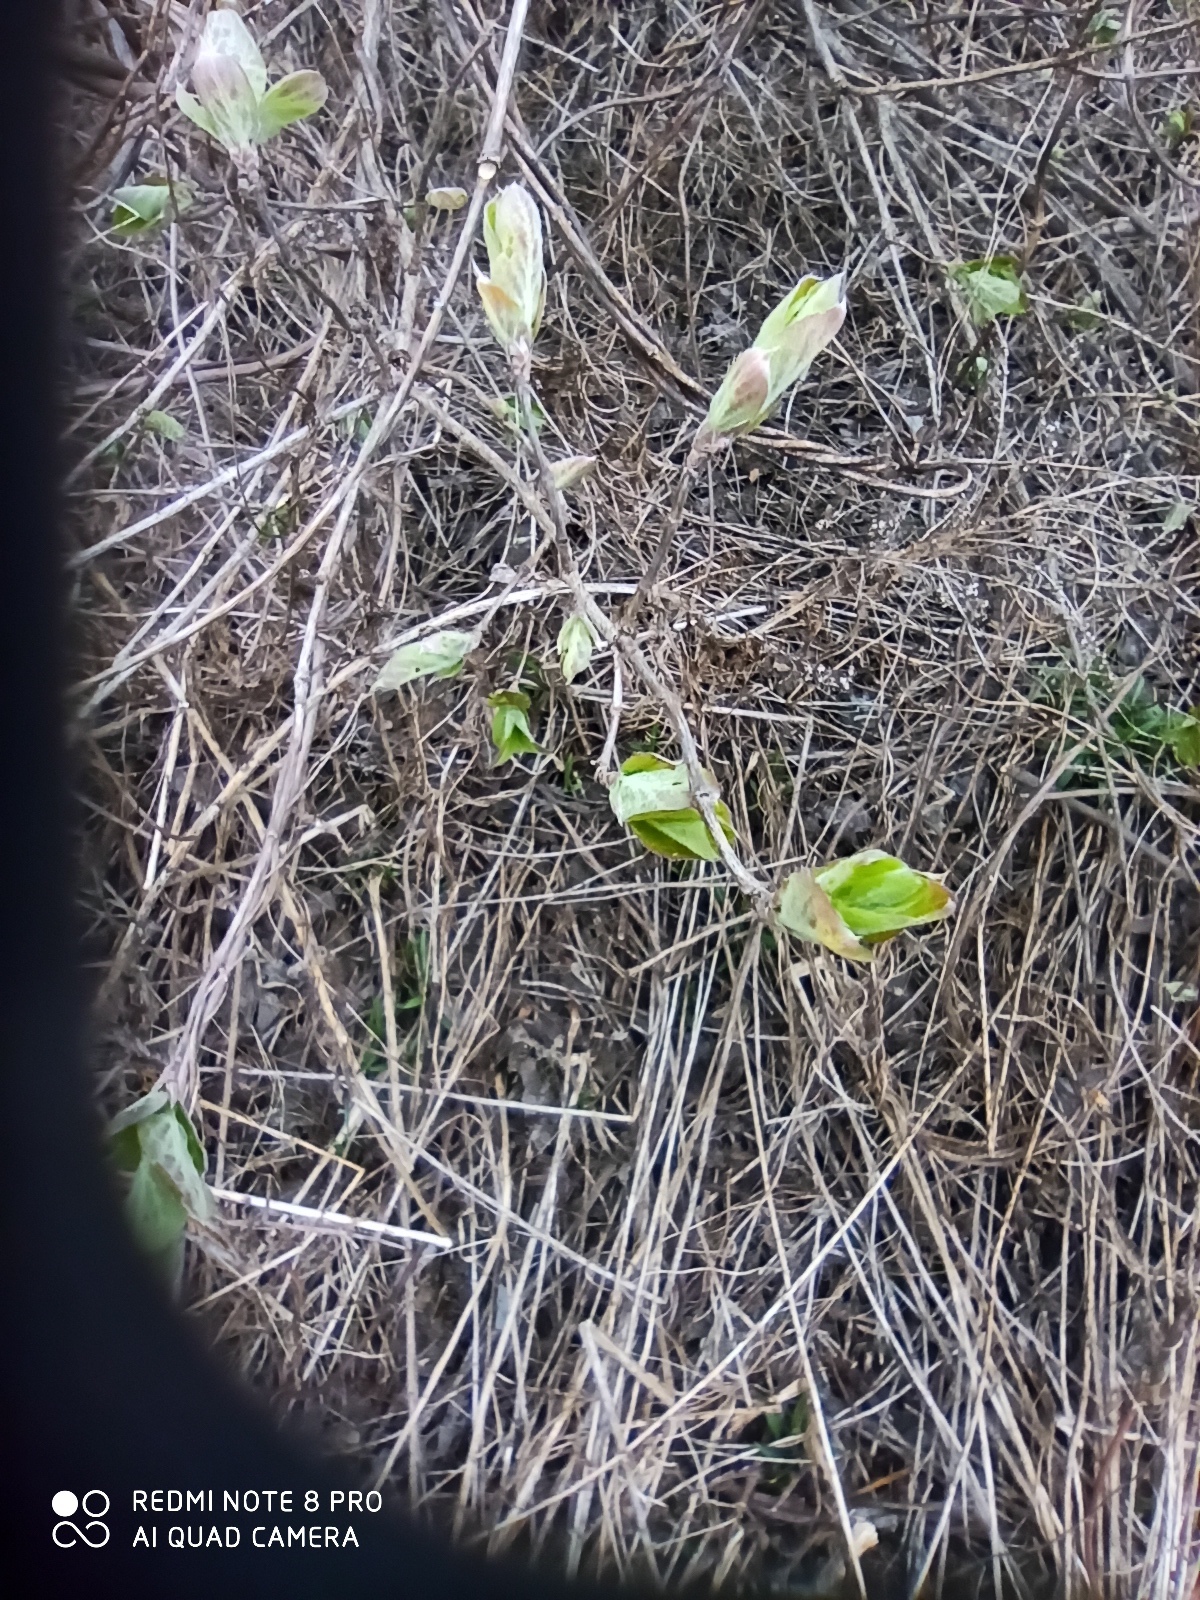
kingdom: Plantae
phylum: Tracheophyta
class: Magnoliopsida
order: Dipsacales
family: Caprifoliaceae
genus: Lonicera
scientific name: Lonicera xylosteum
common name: Fly honeysuckle
